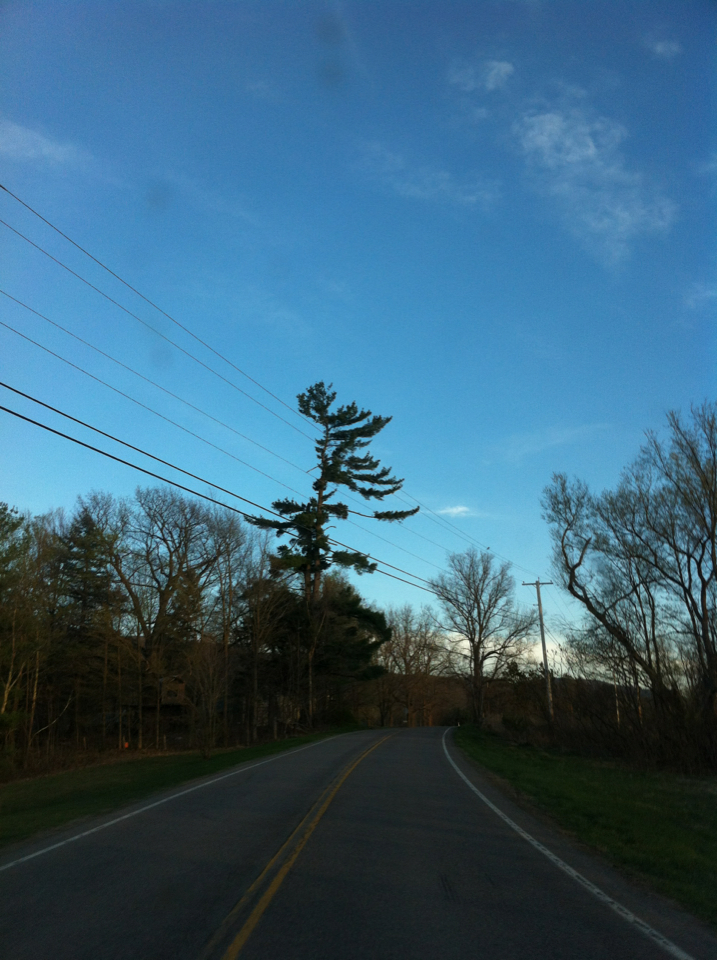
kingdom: Plantae
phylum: Tracheophyta
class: Pinopsida
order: Pinales
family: Pinaceae
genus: Pinus
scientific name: Pinus strobus
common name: Weymouth pine
